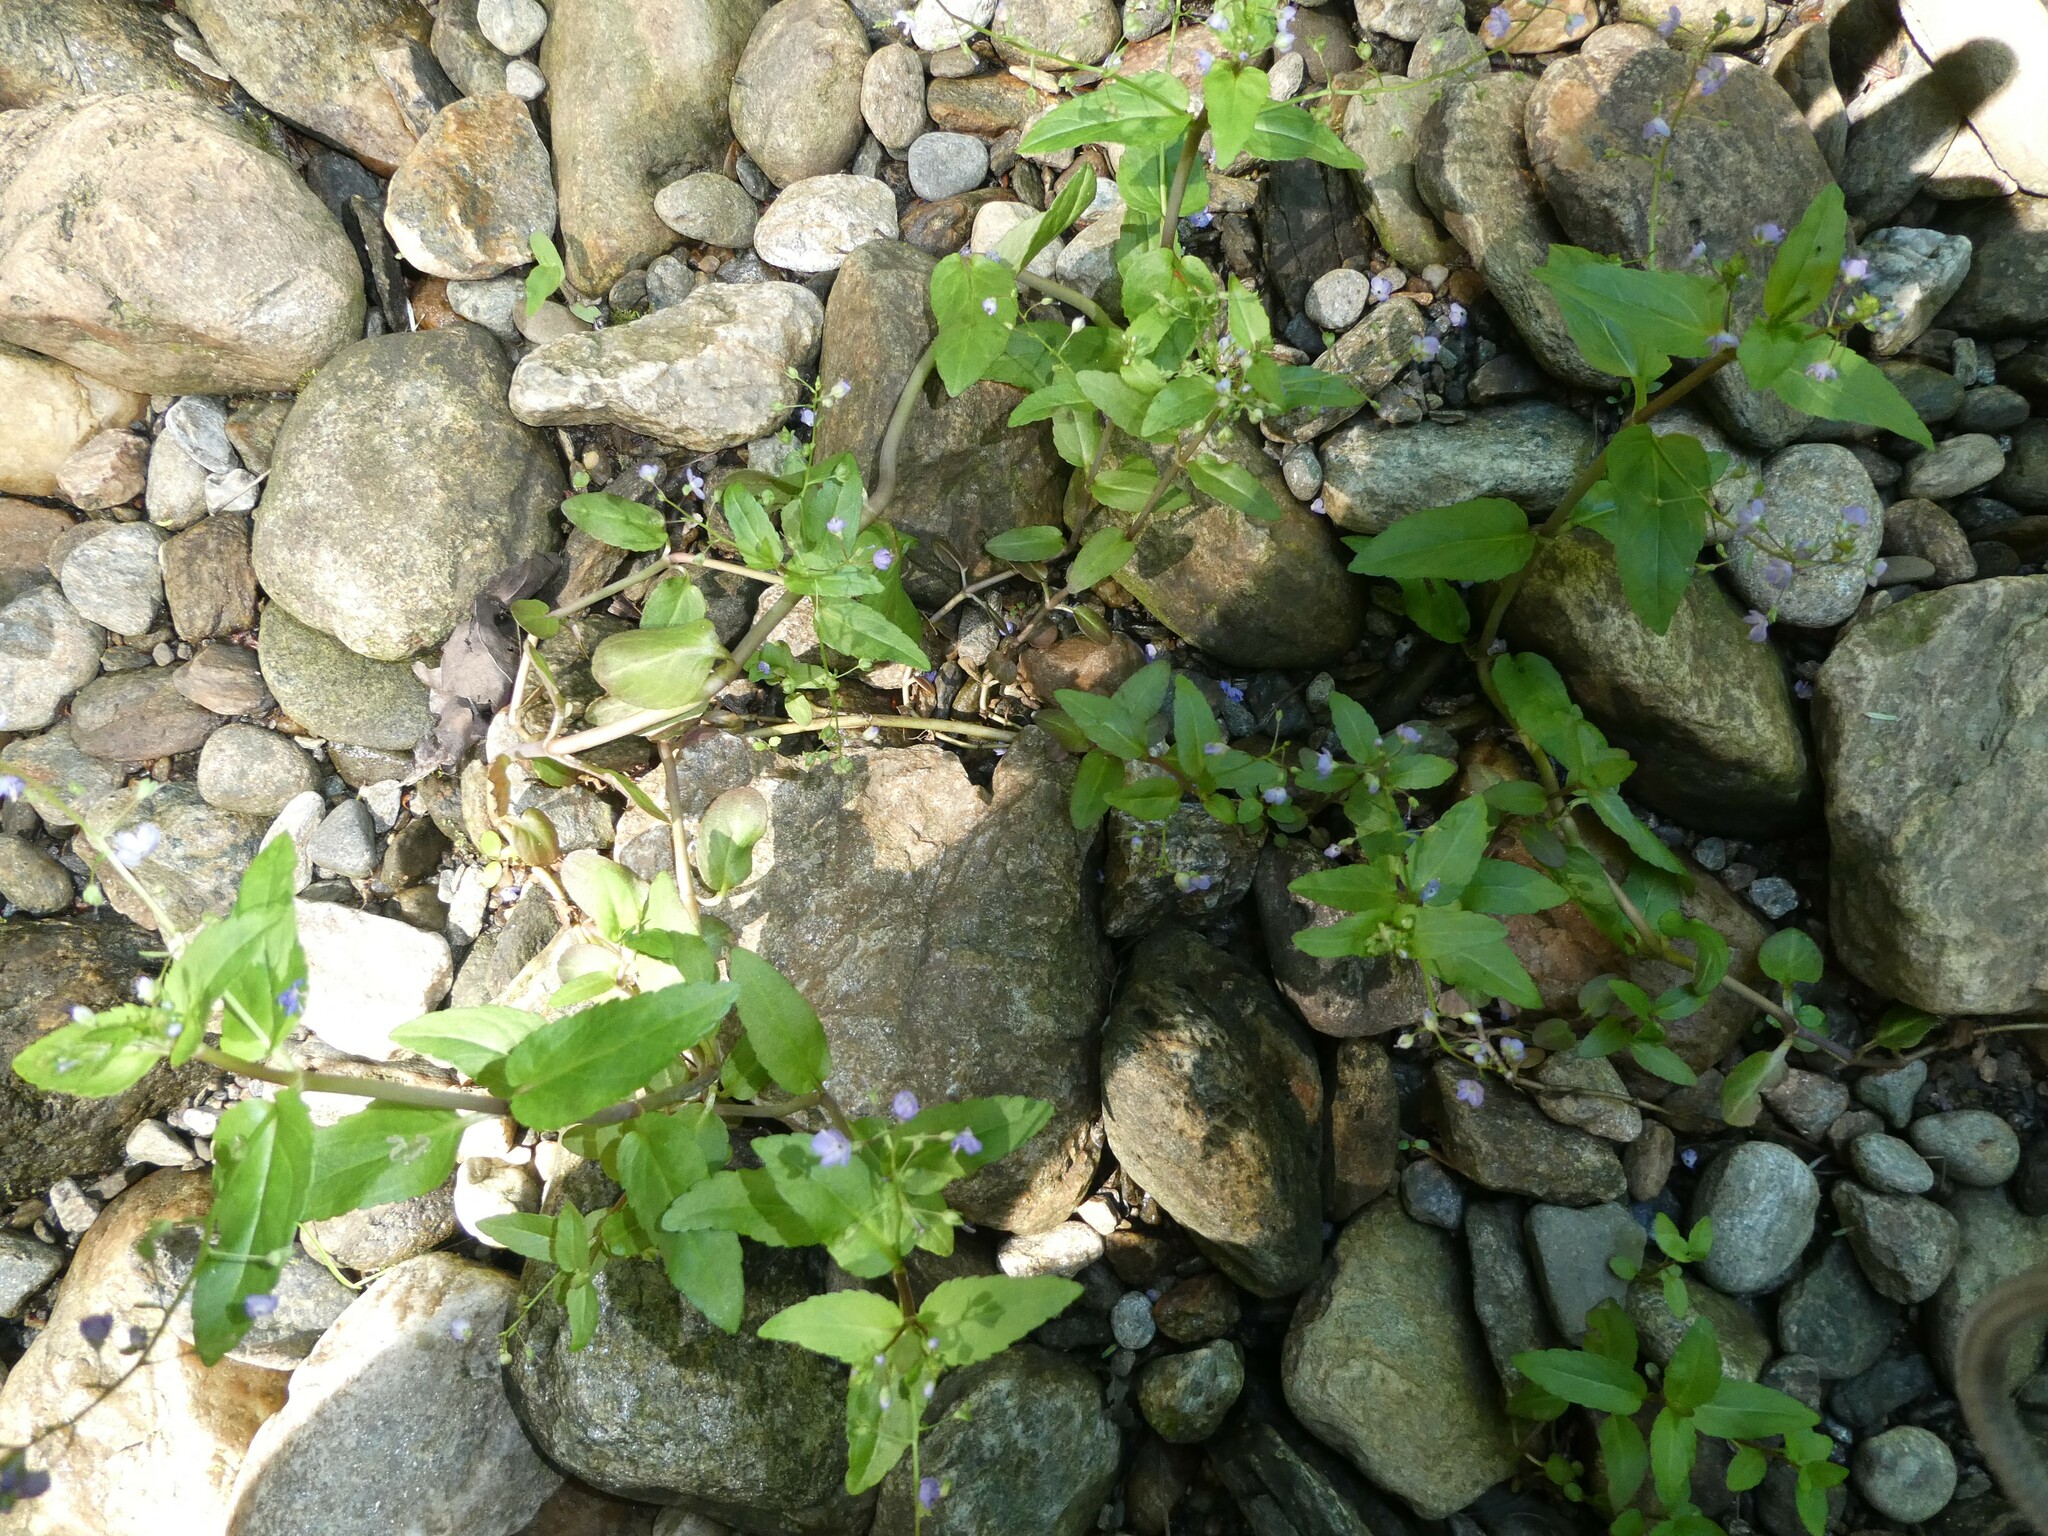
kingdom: Plantae
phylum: Tracheophyta
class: Magnoliopsida
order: Lamiales
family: Plantaginaceae
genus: Veronica
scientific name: Veronica americana
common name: American brooklime
